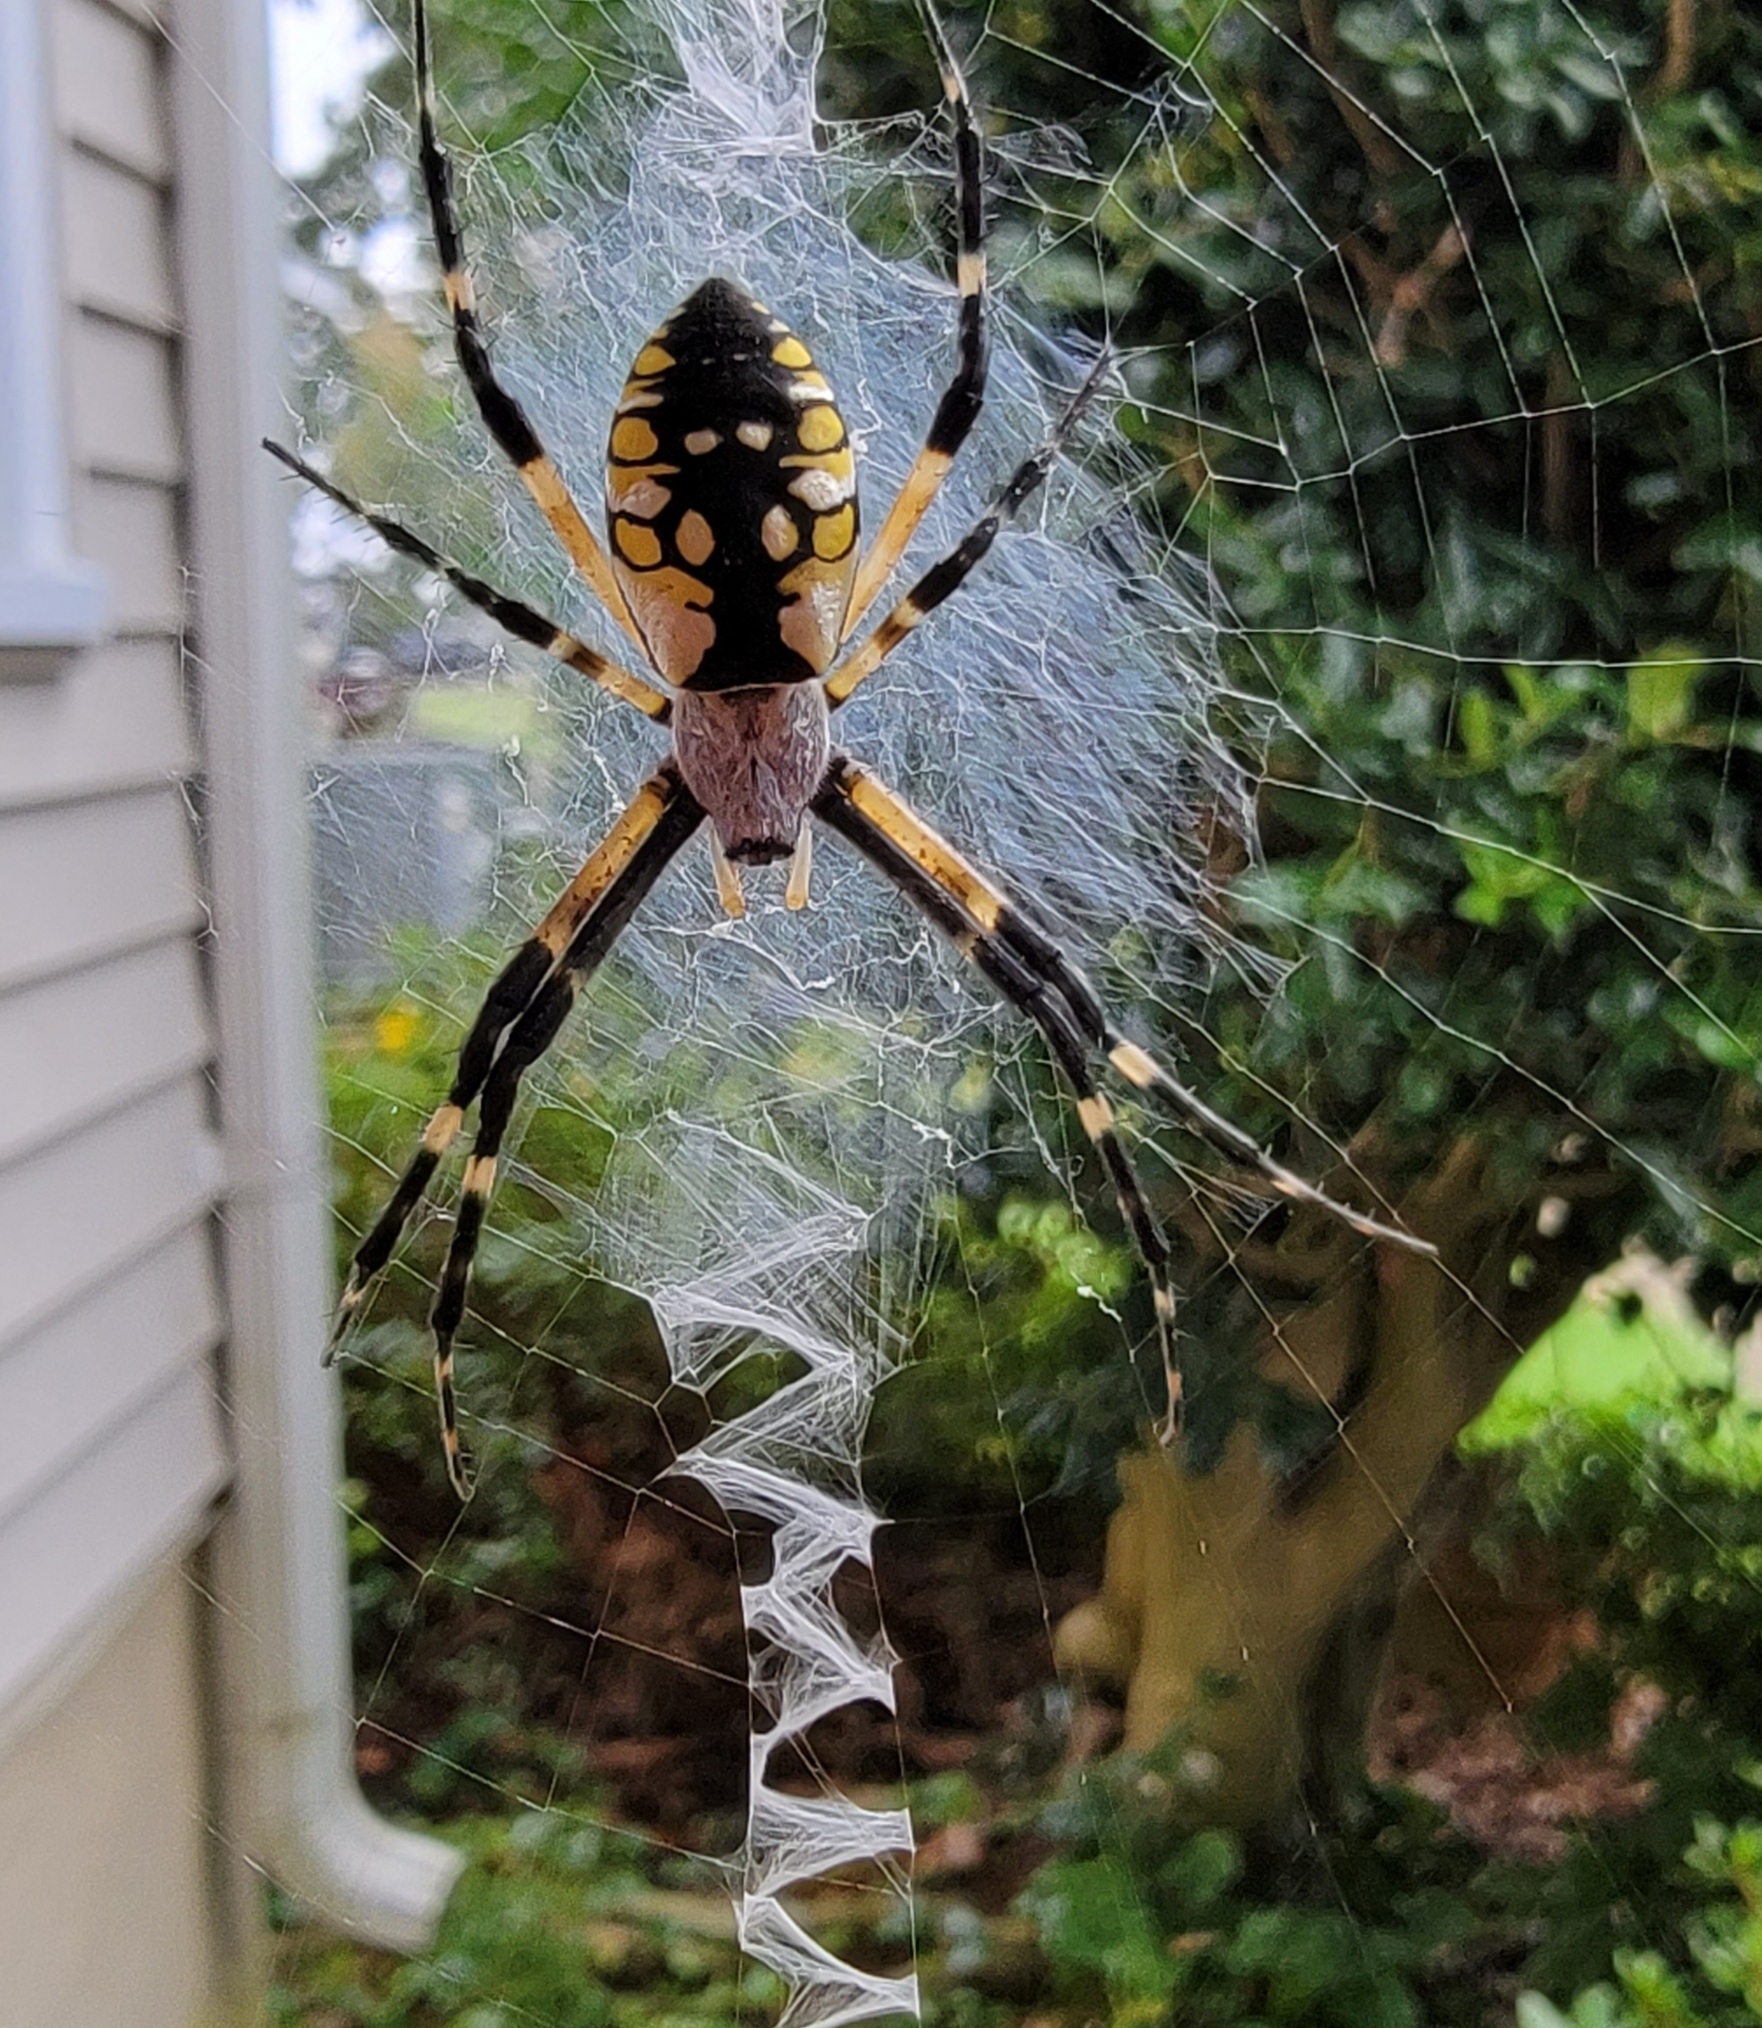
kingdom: Animalia
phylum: Arthropoda
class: Arachnida
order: Araneae
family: Araneidae
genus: Argiope
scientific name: Argiope aurantia
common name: Orb weavers
